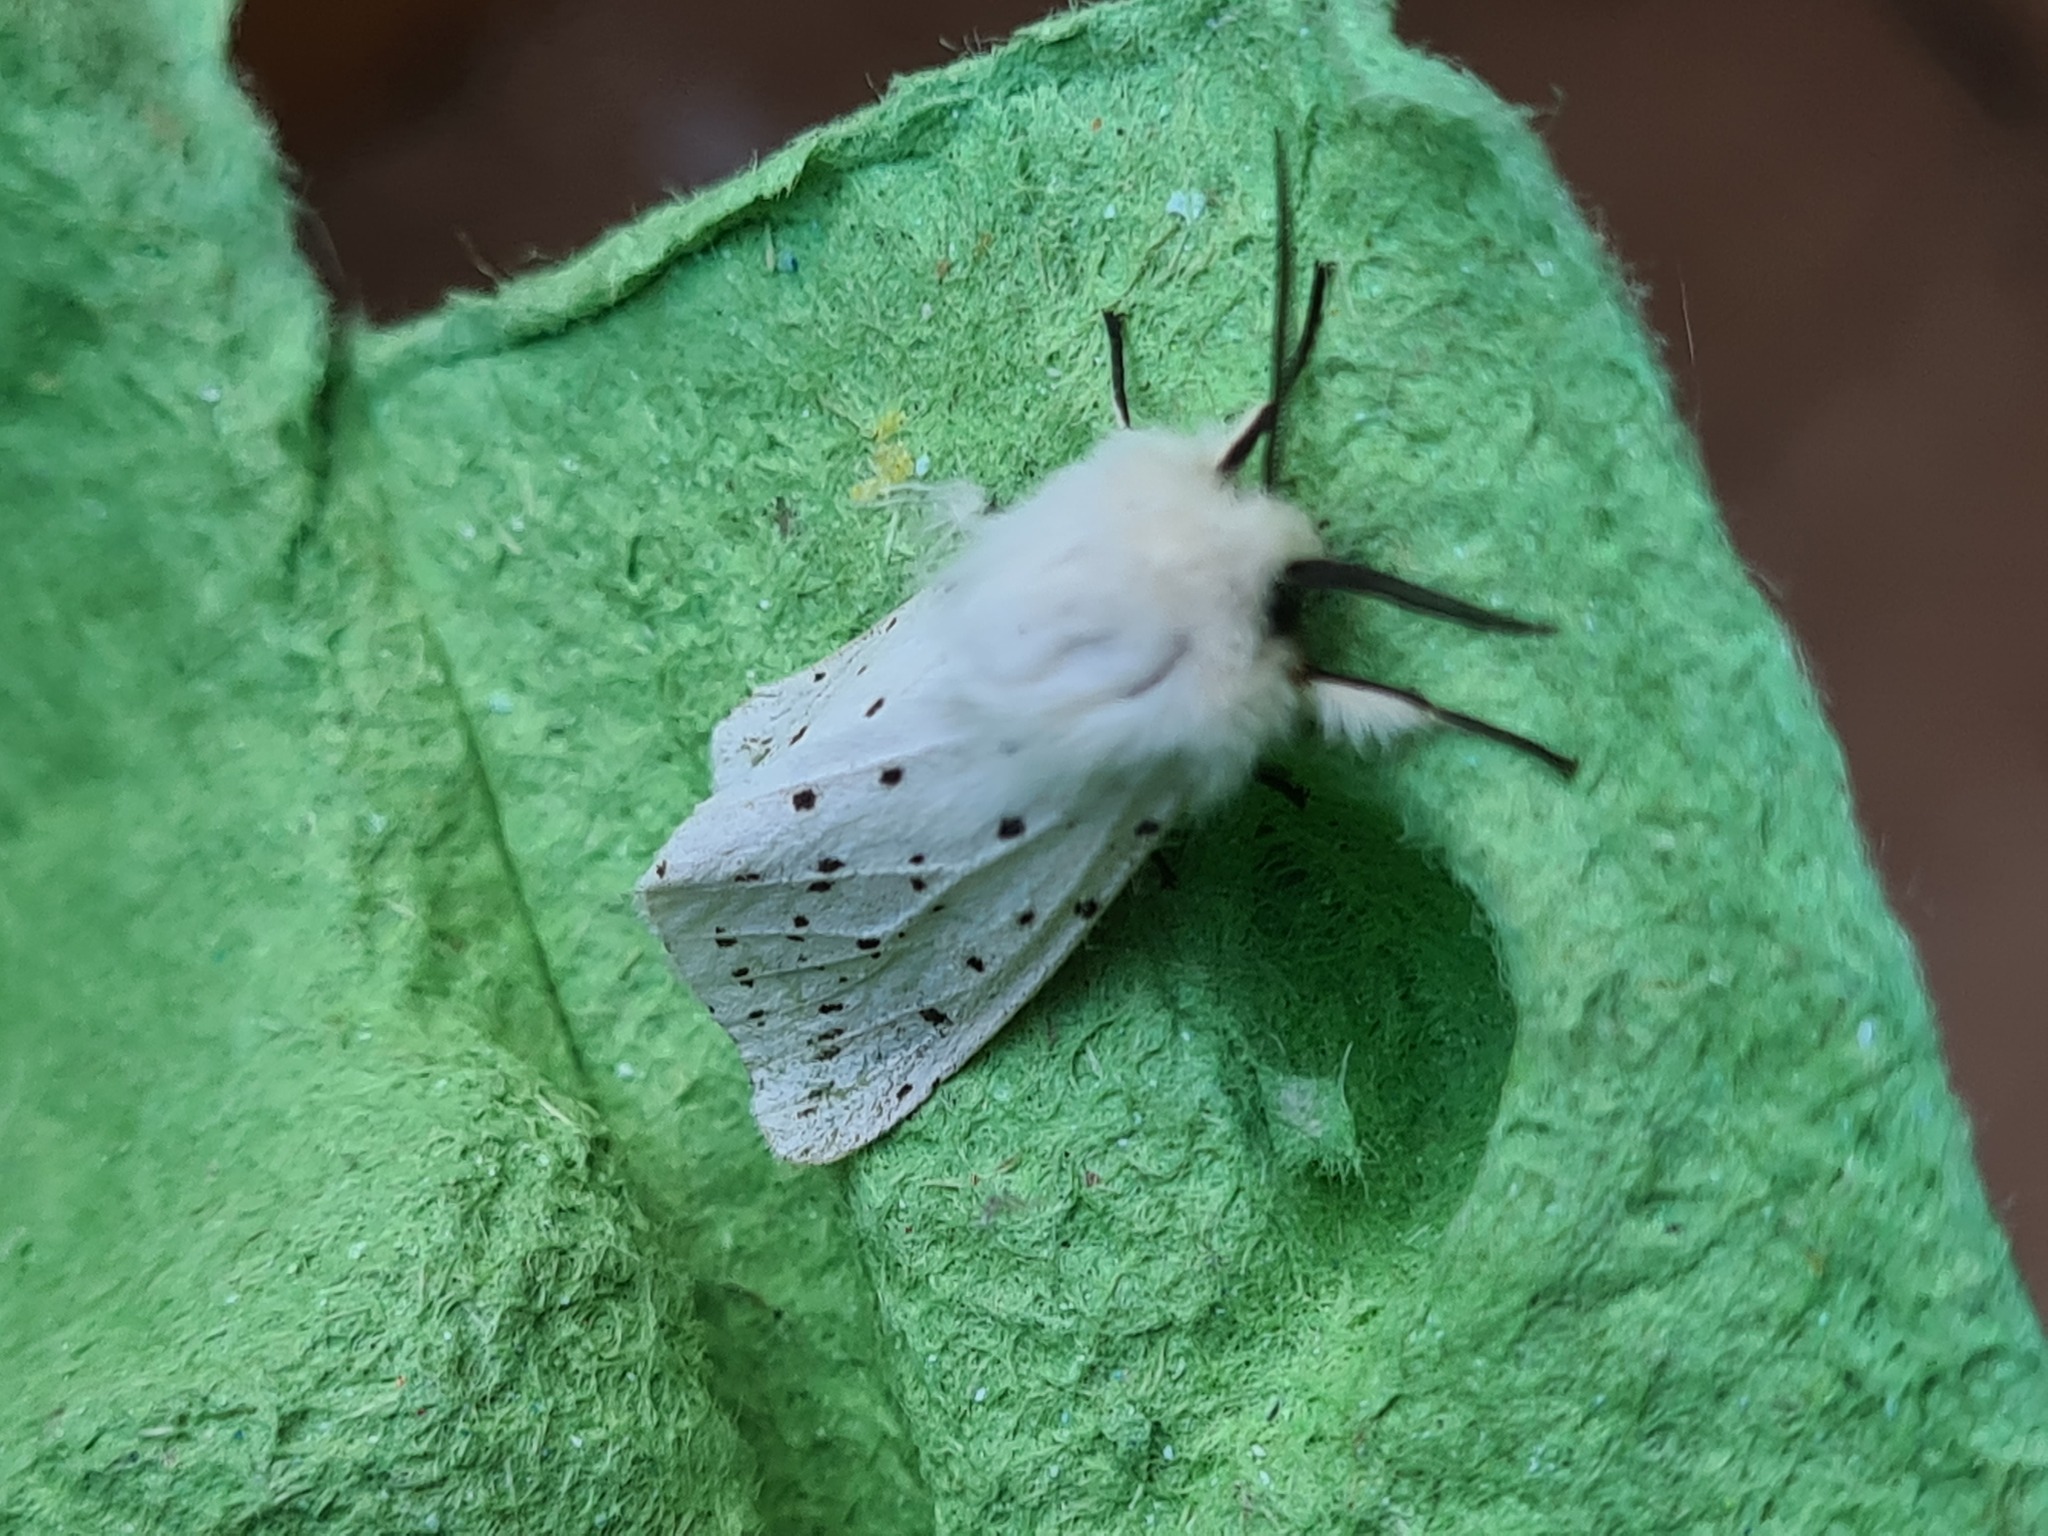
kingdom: Animalia
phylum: Arthropoda
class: Insecta
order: Lepidoptera
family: Erebidae
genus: Spilosoma
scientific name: Spilosoma lubricipeda
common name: White ermine
